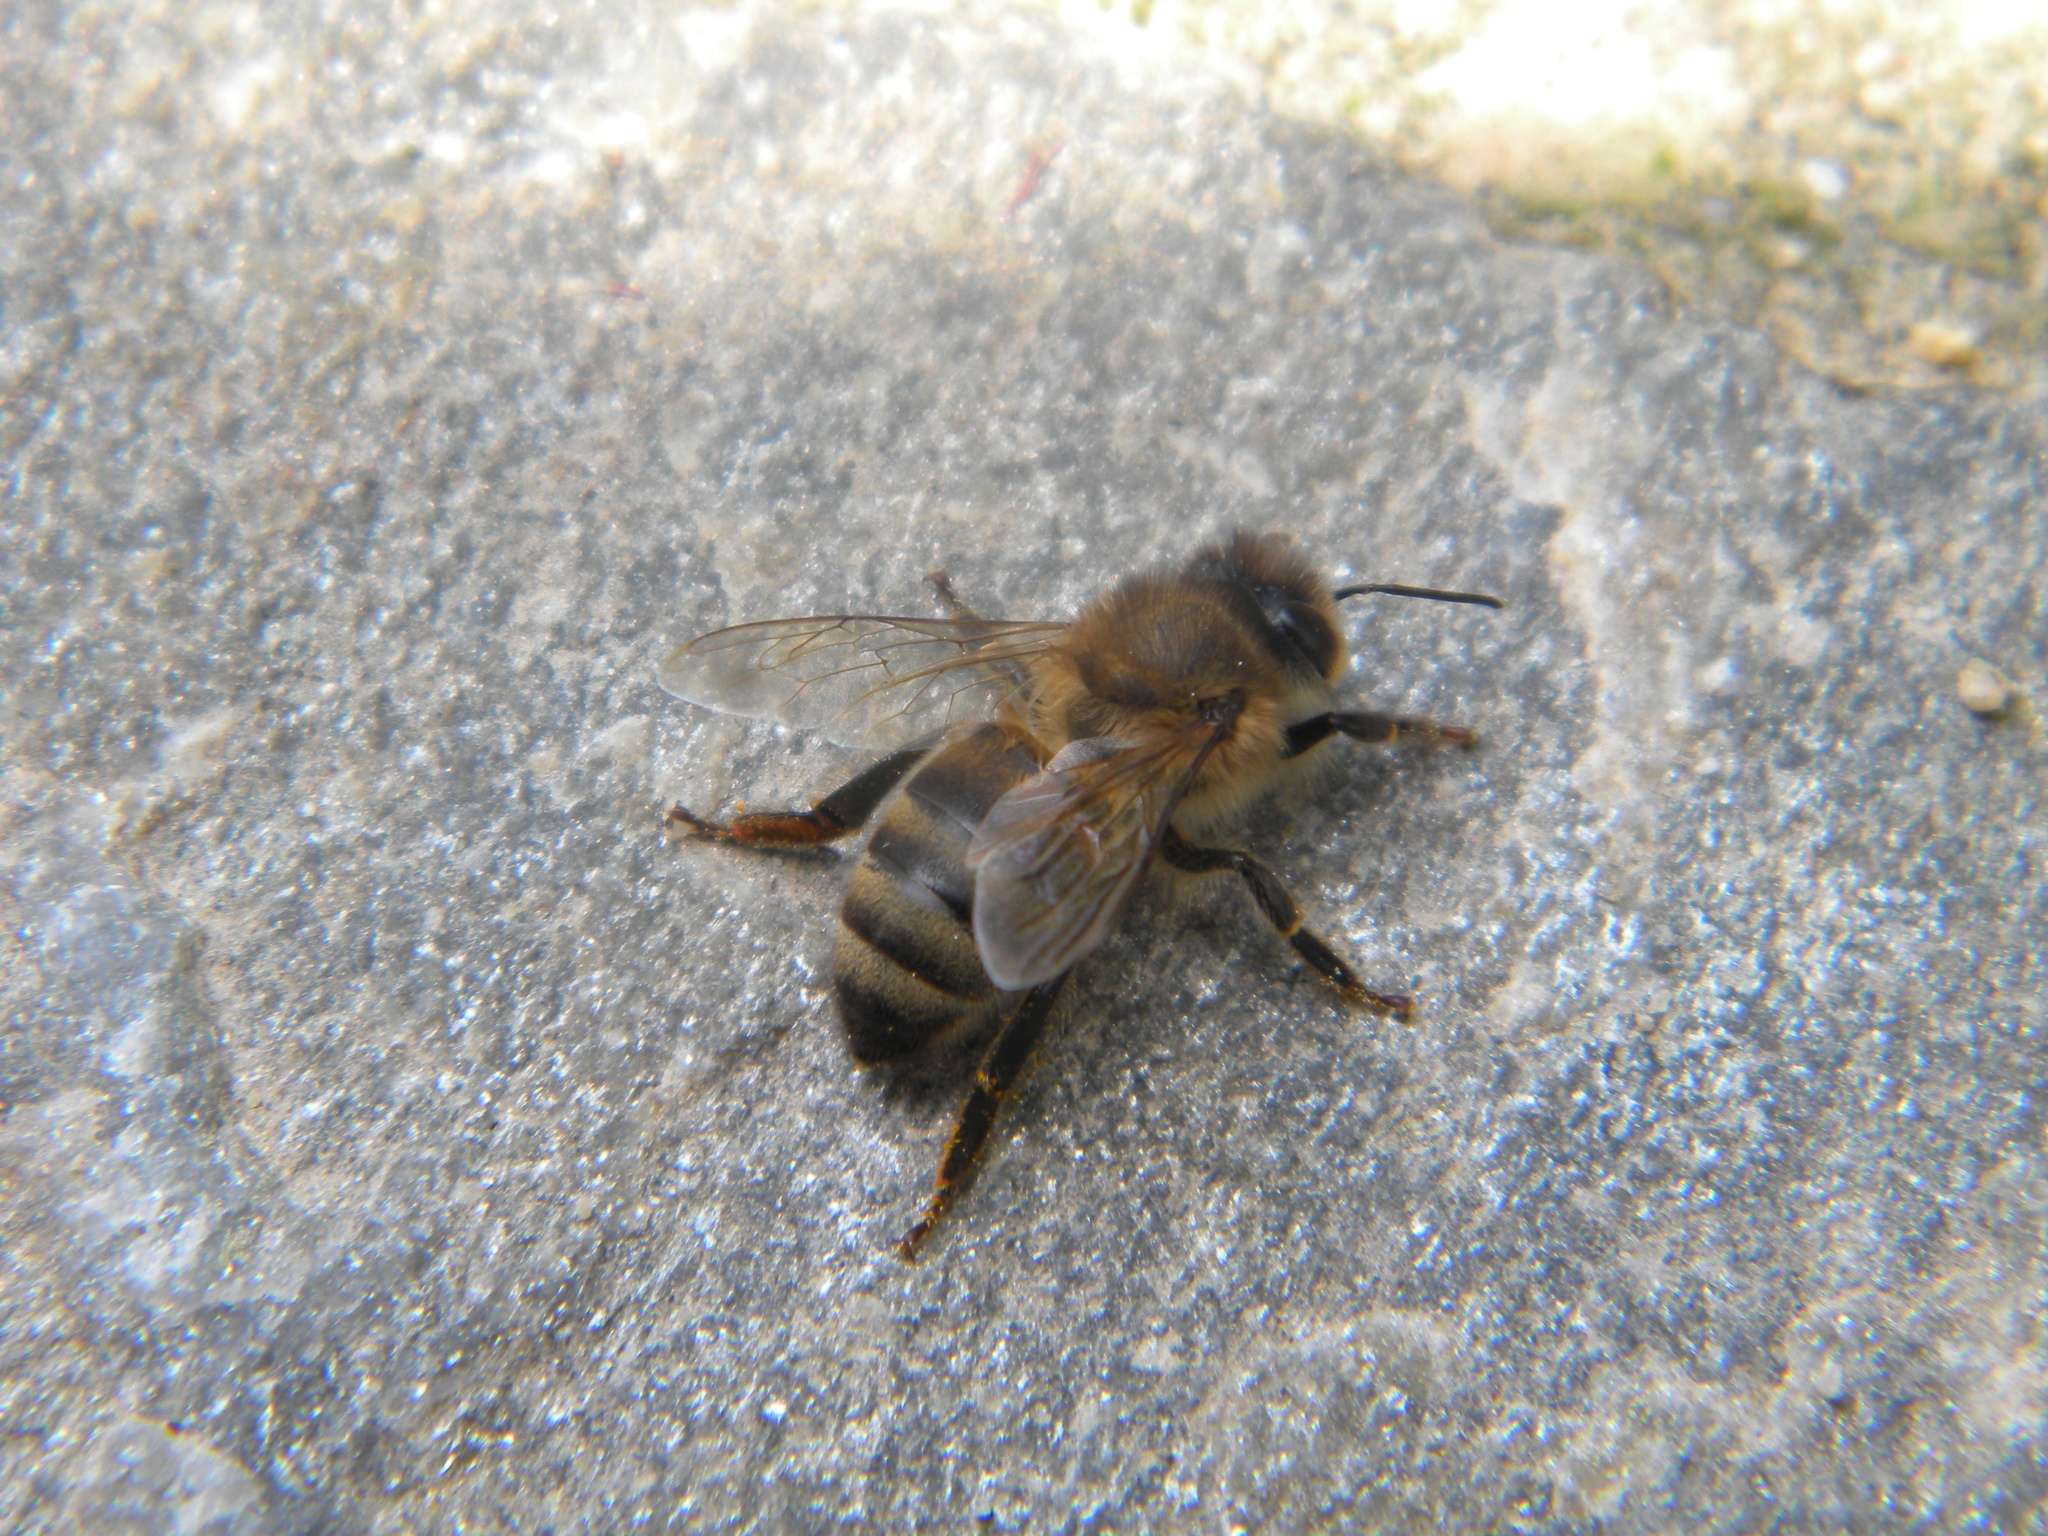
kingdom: Animalia
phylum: Arthropoda
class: Insecta
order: Hymenoptera
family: Apidae
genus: Apis
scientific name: Apis mellifera
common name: Honey bee
